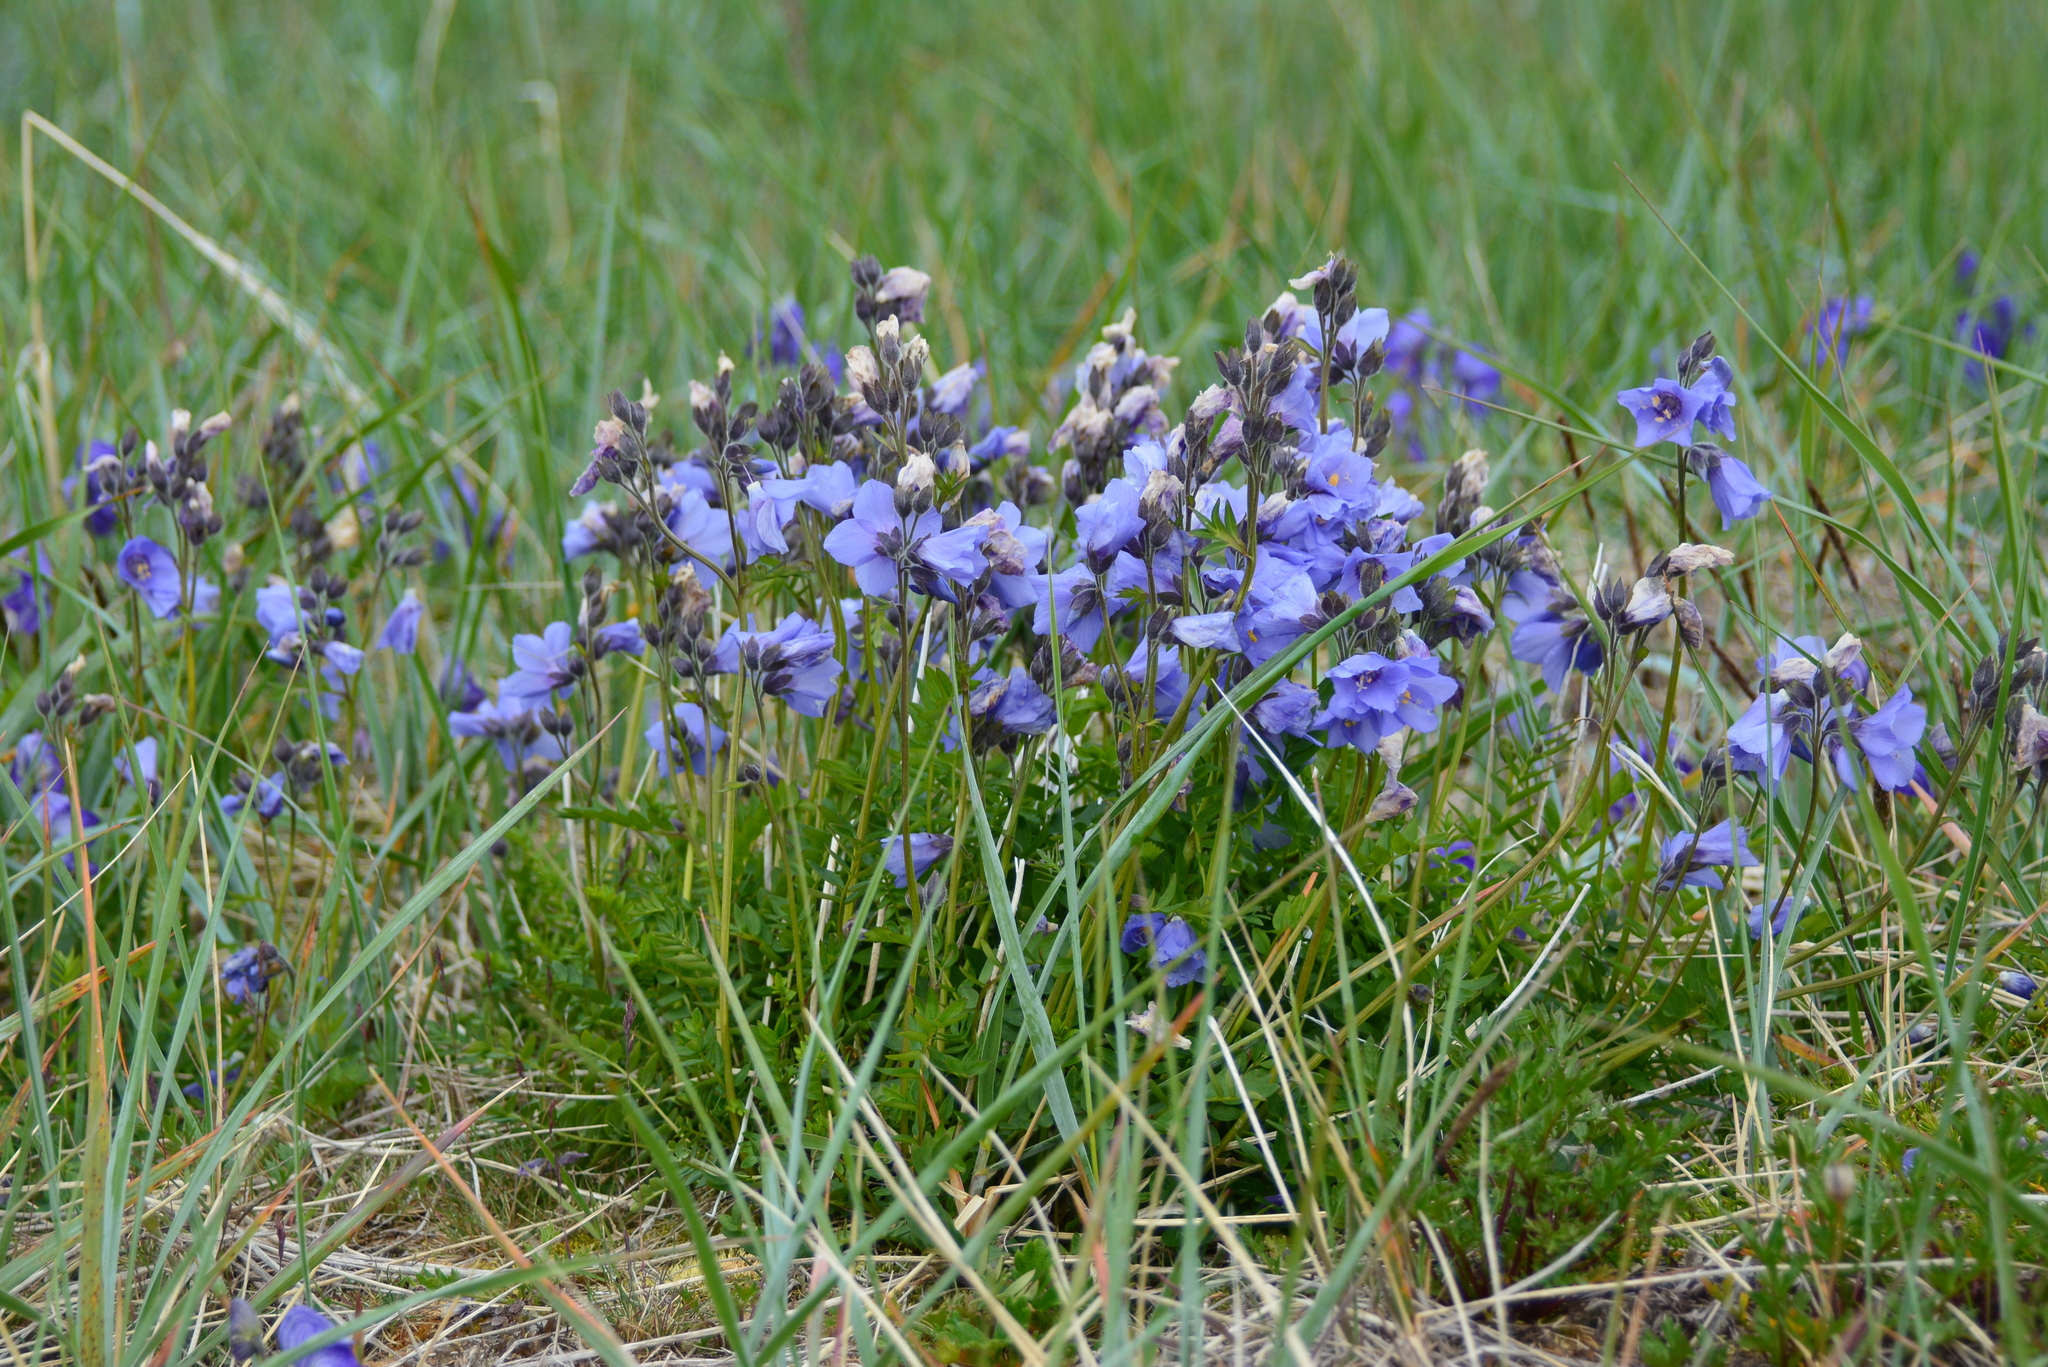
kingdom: Plantae
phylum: Tracheophyta
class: Magnoliopsida
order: Ericales
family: Polemoniaceae
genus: Polemonium
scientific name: Polemonium acutiflorum
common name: Tall jacob's-ladder
